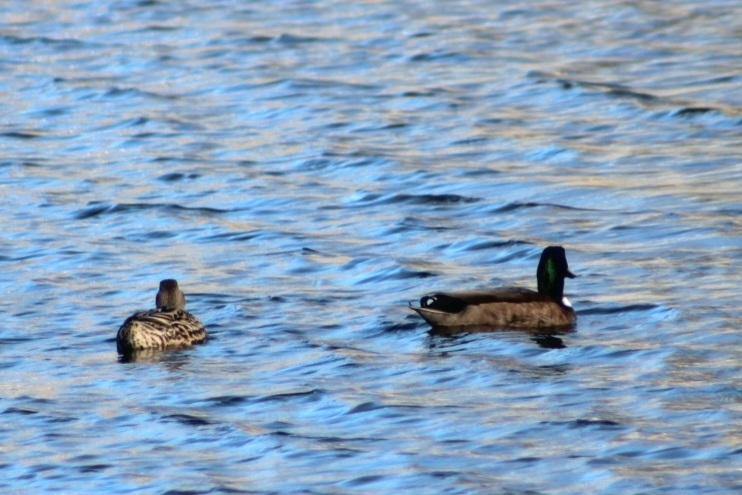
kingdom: Animalia
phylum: Chordata
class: Aves
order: Anseriformes
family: Anatidae
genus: Anas
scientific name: Anas platyrhynchos
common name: Mallard
